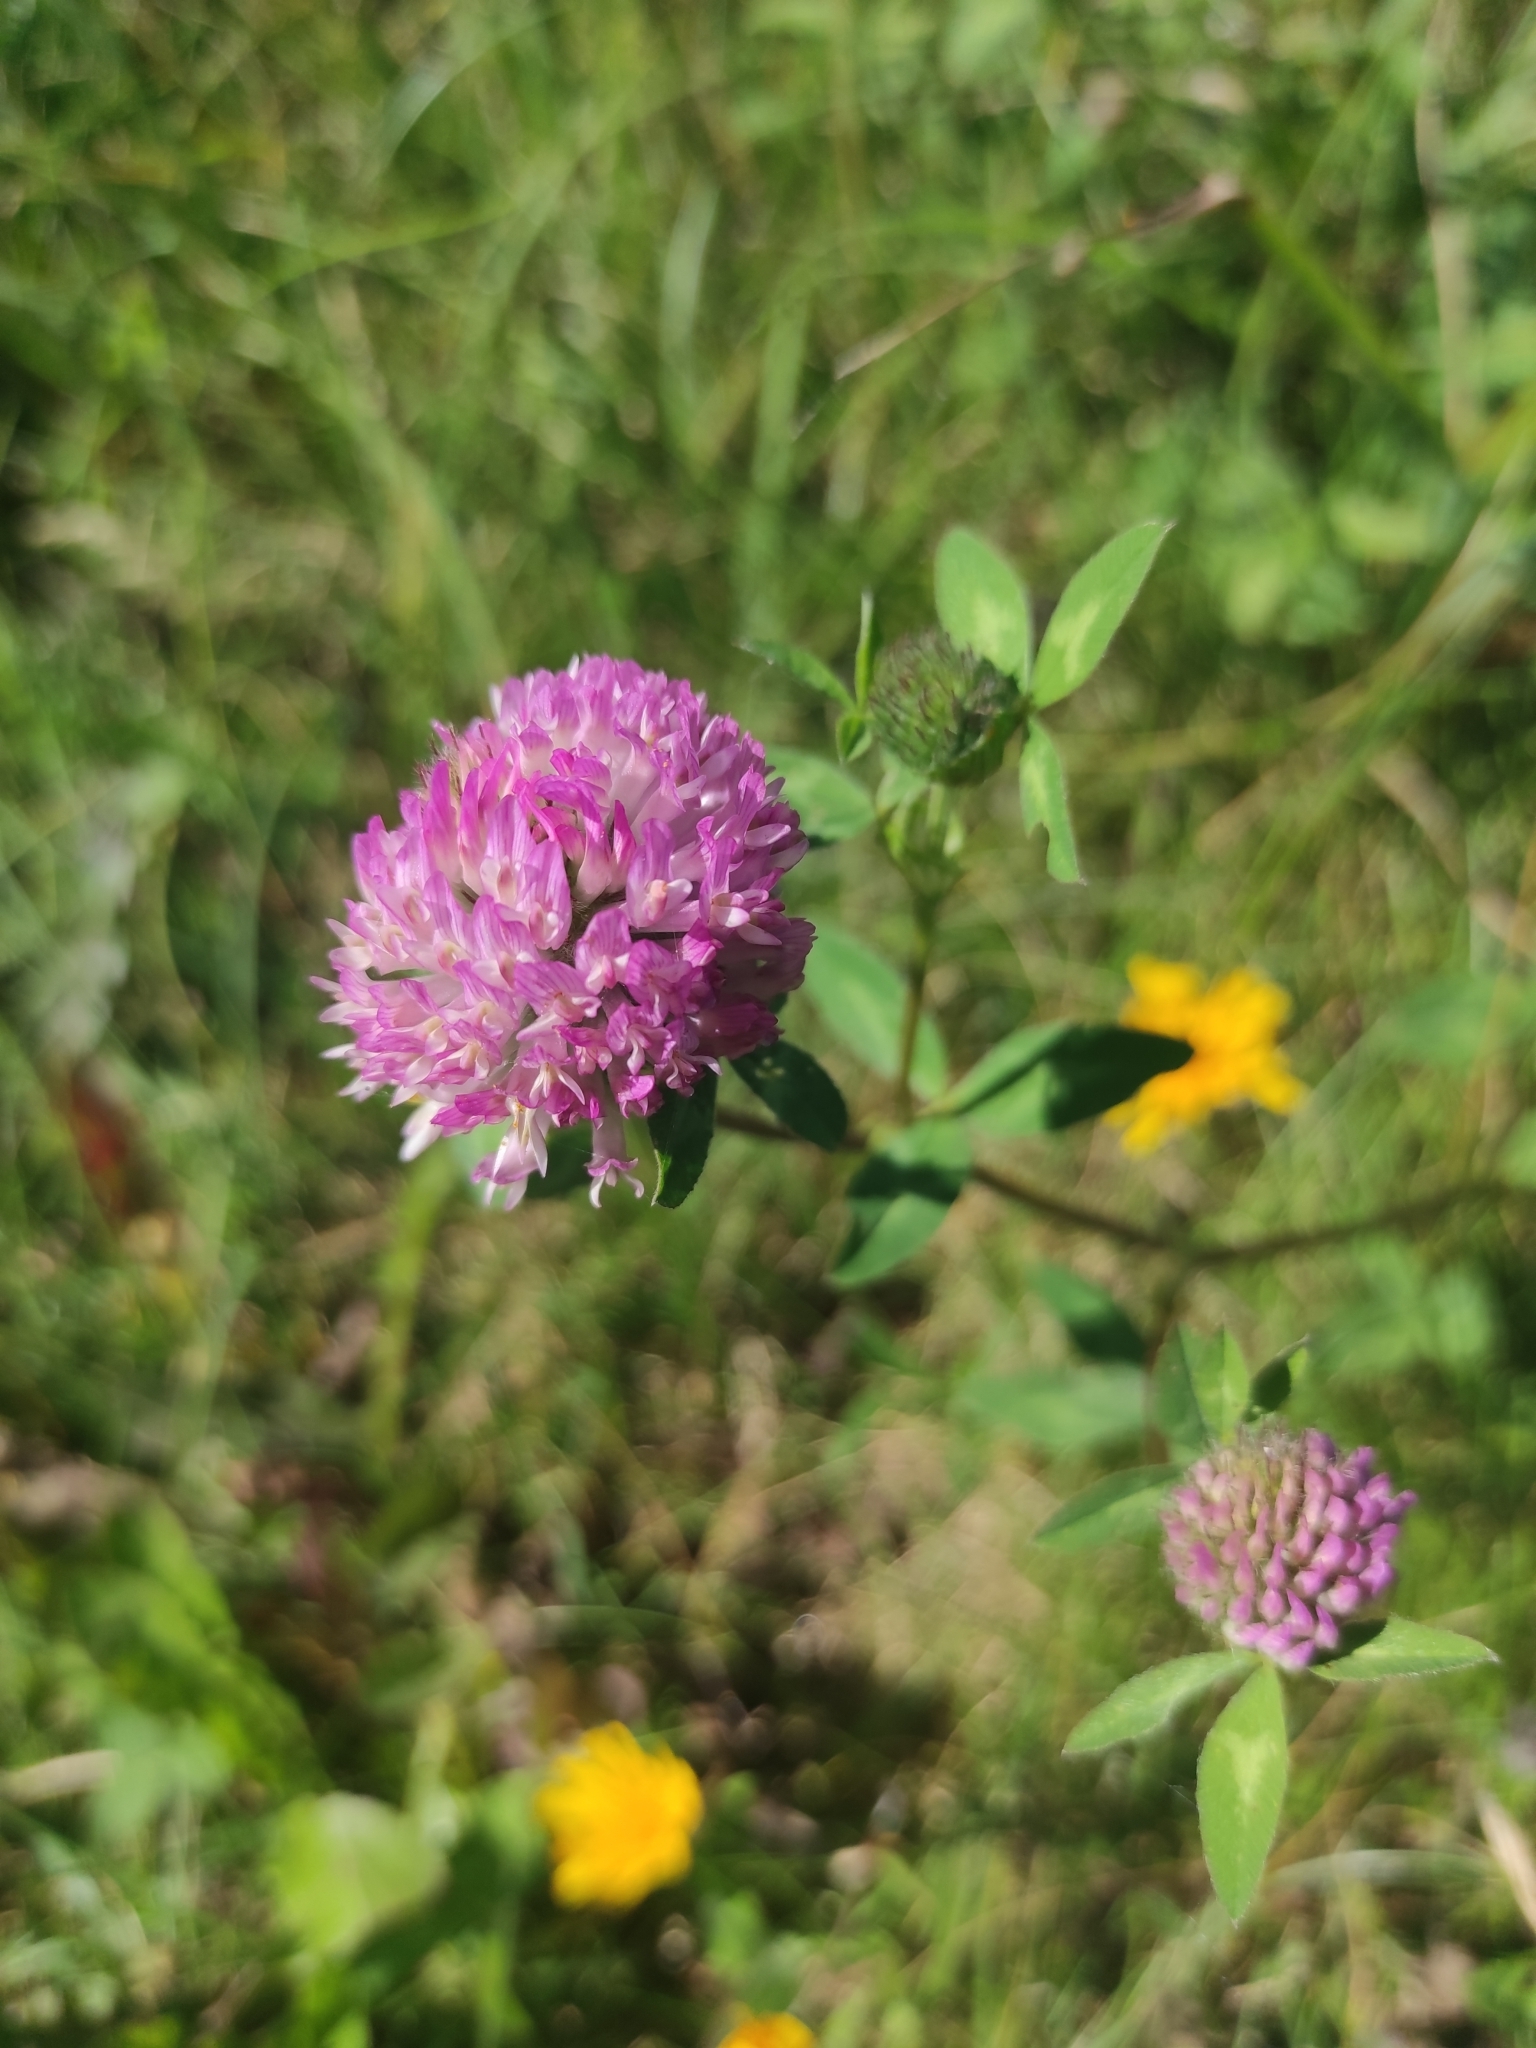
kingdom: Plantae
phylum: Tracheophyta
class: Magnoliopsida
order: Fabales
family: Fabaceae
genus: Trifolium
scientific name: Trifolium pratense
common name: Red clover
